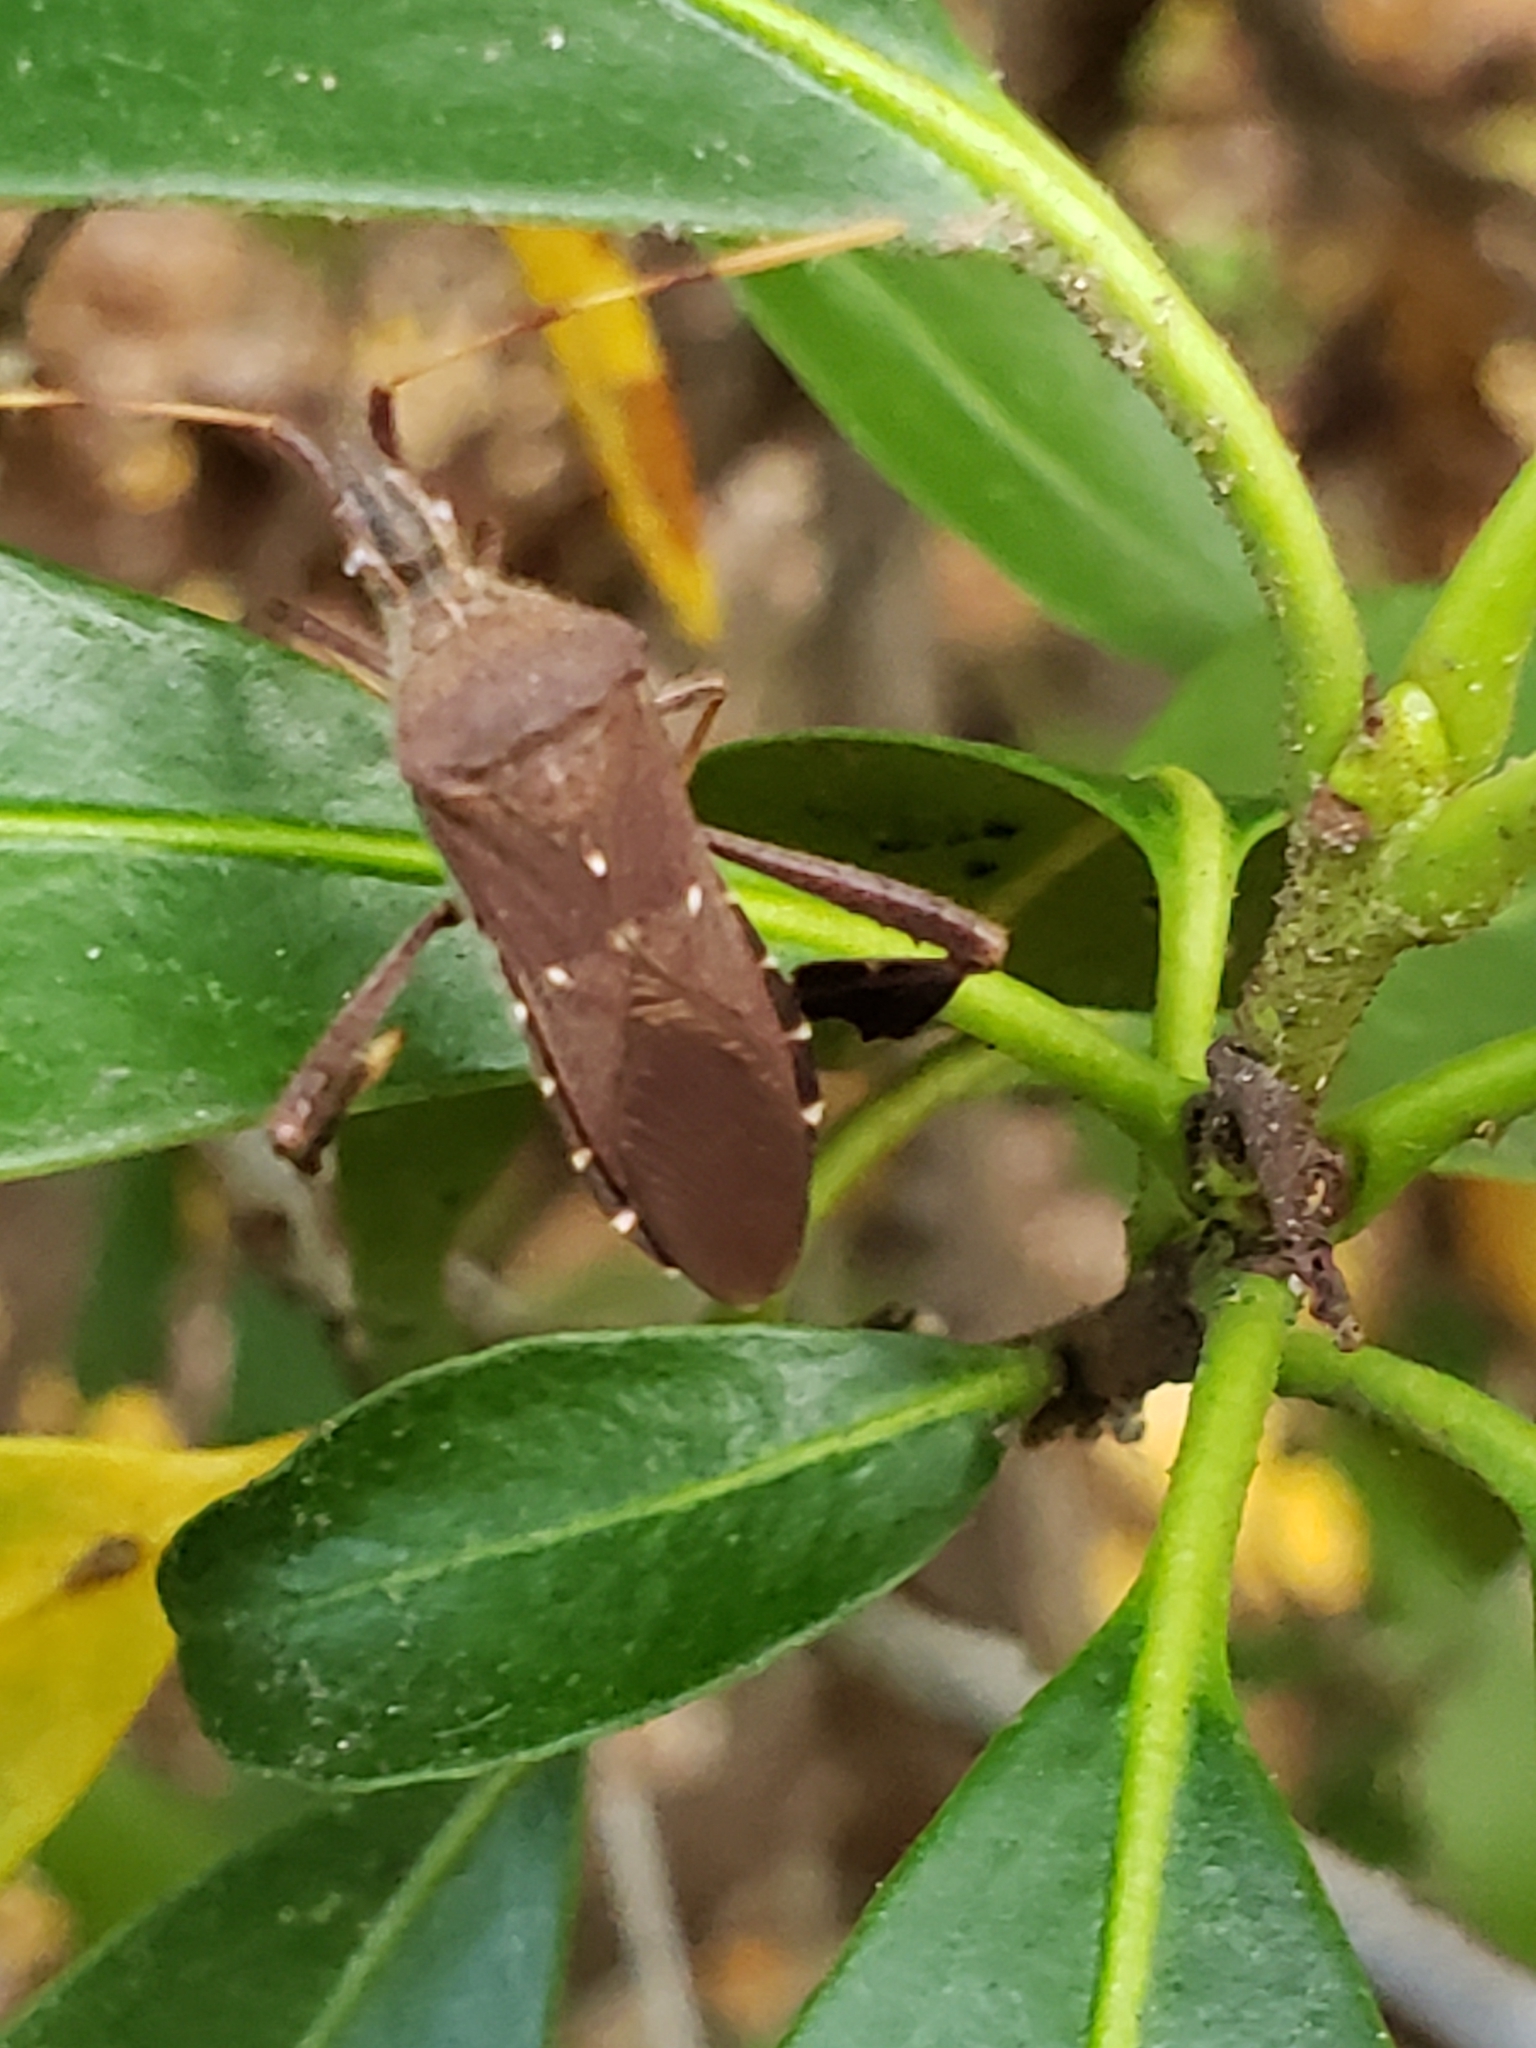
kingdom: Animalia
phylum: Arthropoda
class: Insecta
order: Hemiptera
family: Coreidae
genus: Leptoglossus
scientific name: Leptoglossus oppositus
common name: Northern leaf-footed bug
